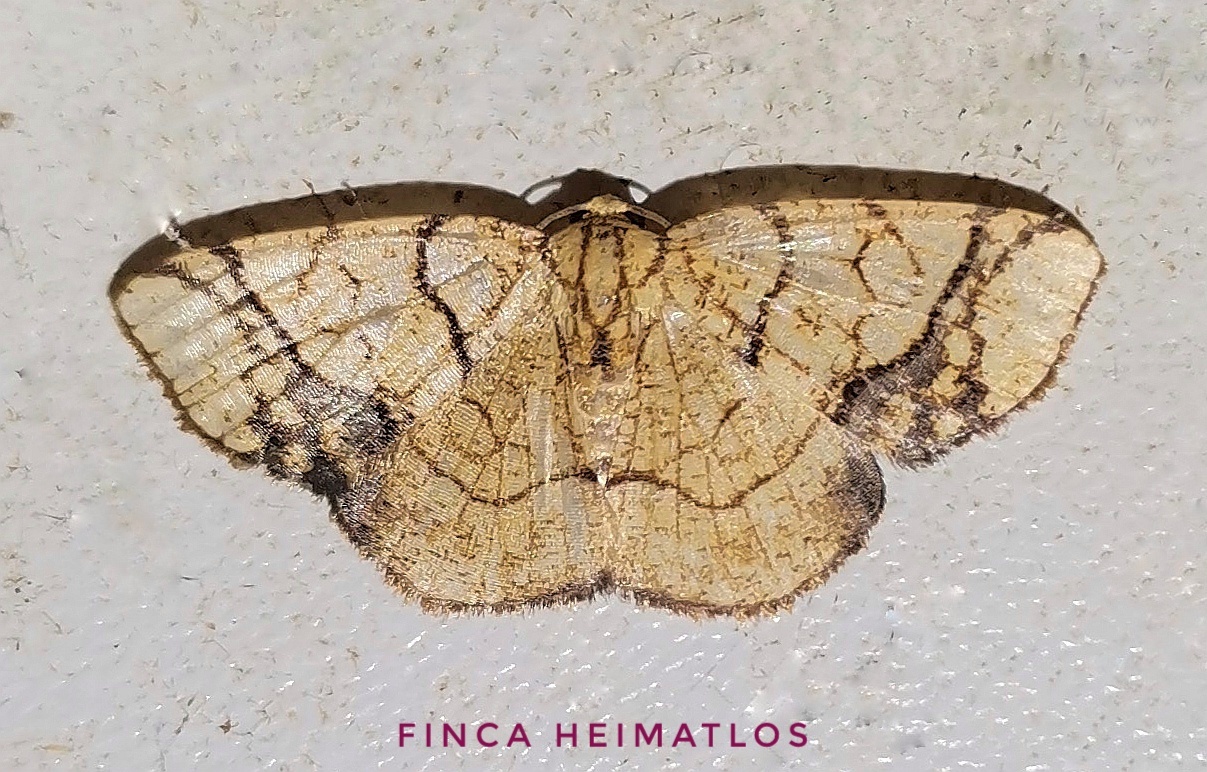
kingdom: Animalia
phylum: Arthropoda
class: Insecta
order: Lepidoptera
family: Geometridae
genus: Nematocampa
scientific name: Nematocampa straminea
